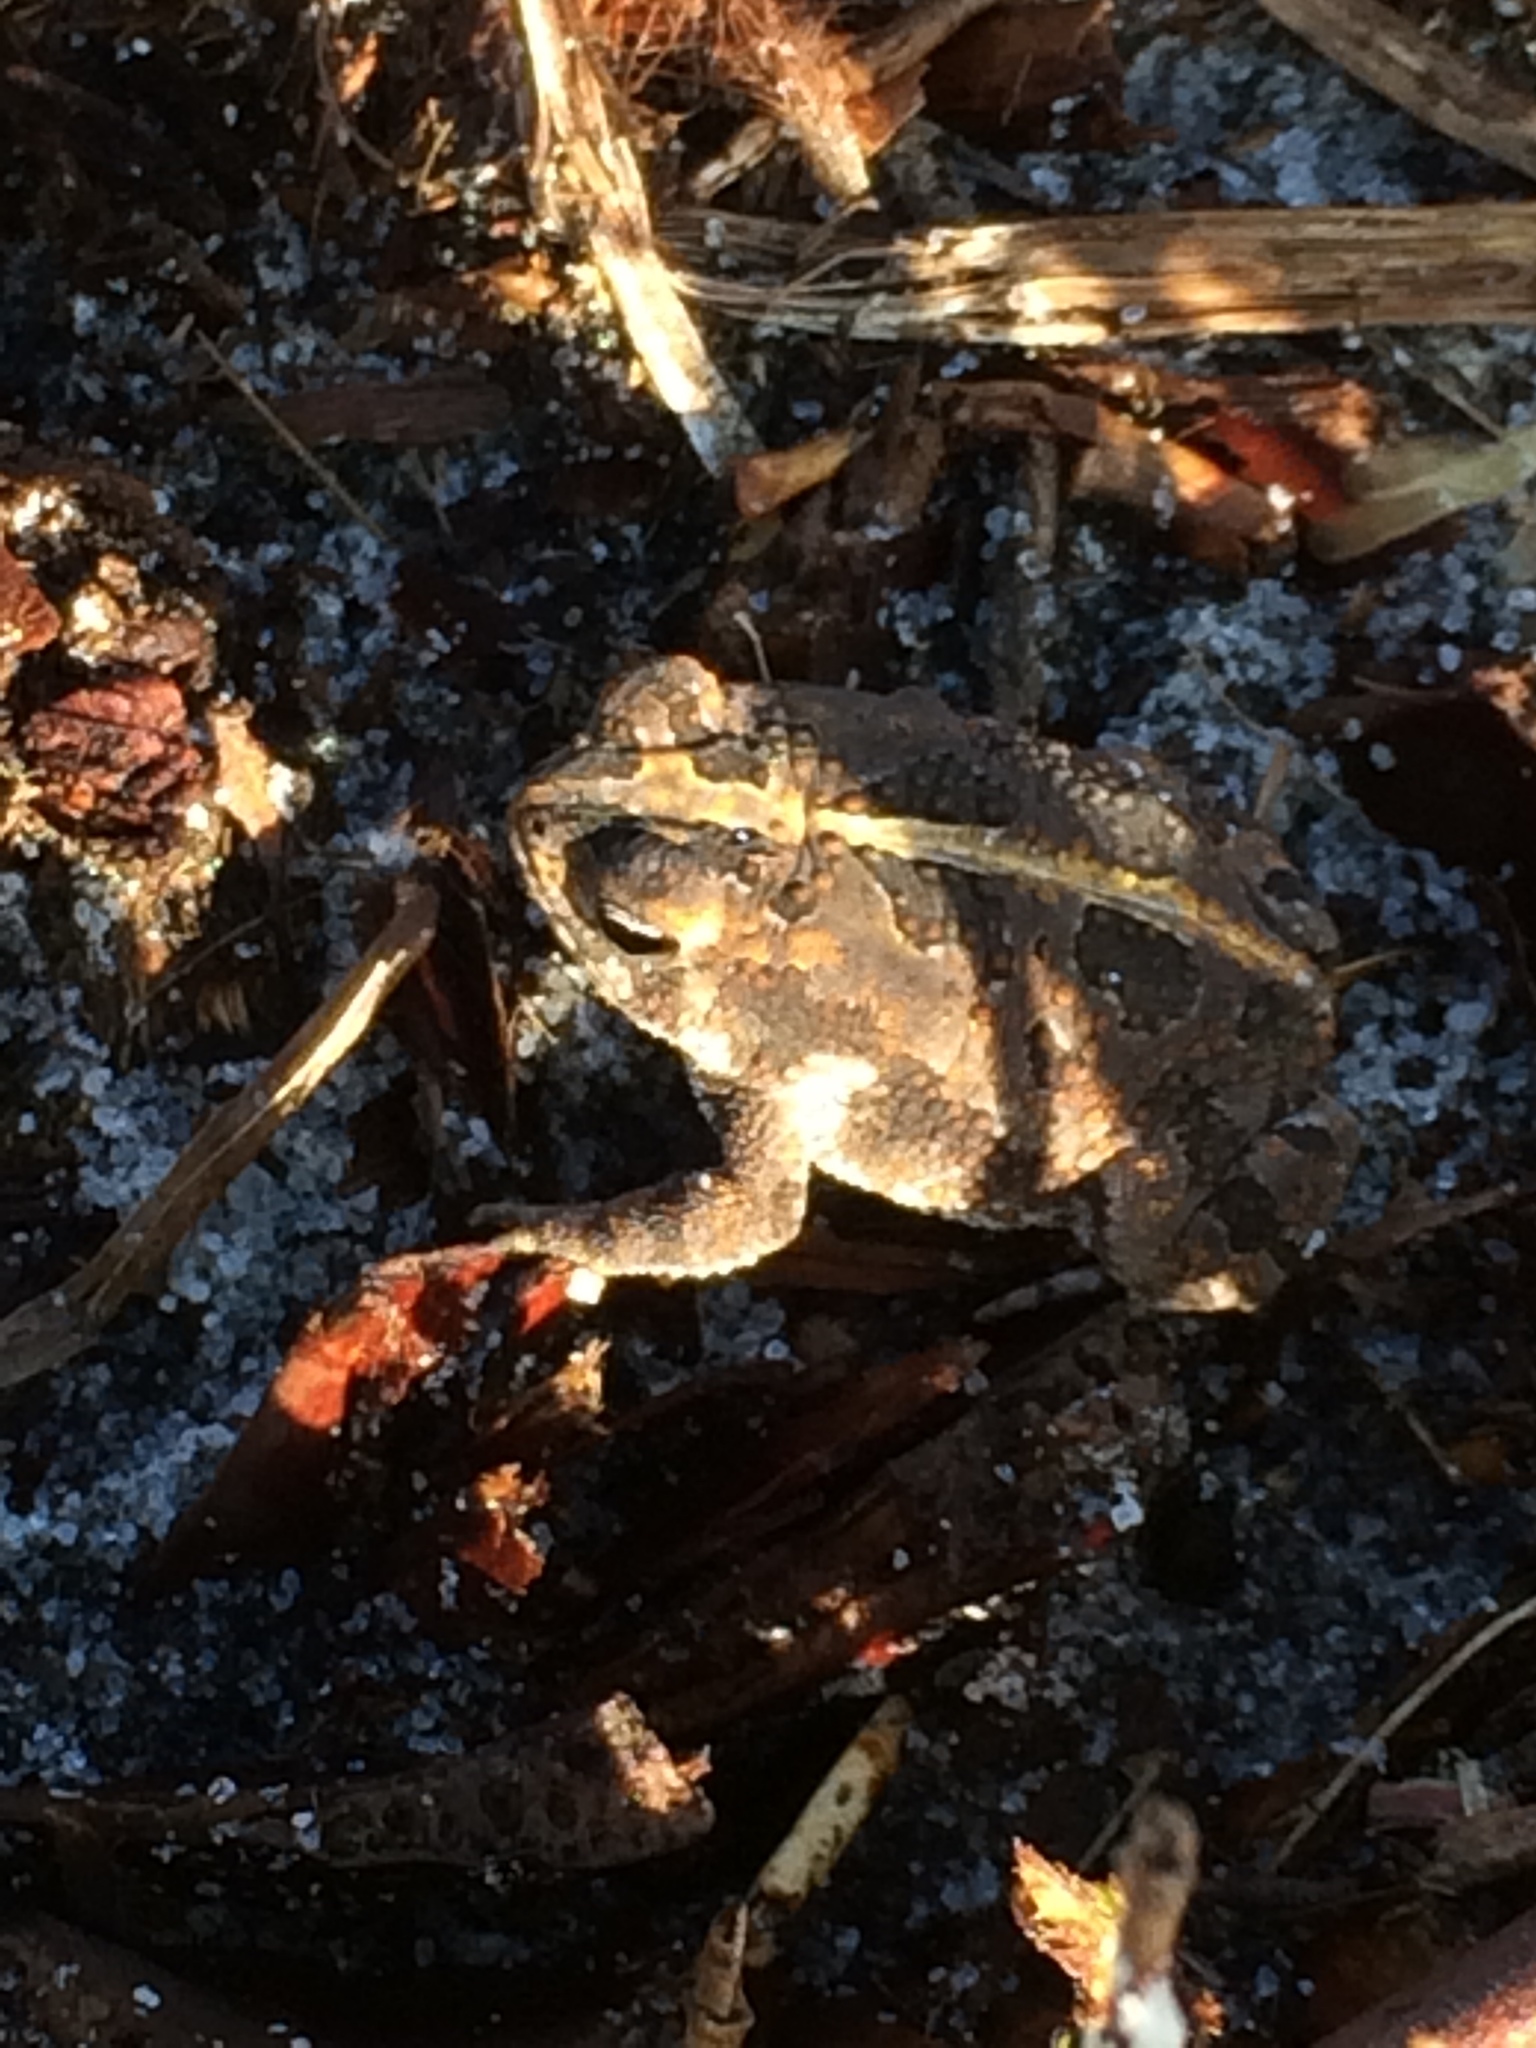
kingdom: Animalia
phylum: Chordata
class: Amphibia
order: Anura
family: Bufonidae
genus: Anaxyrus
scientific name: Anaxyrus quercicus
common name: Oak toad
